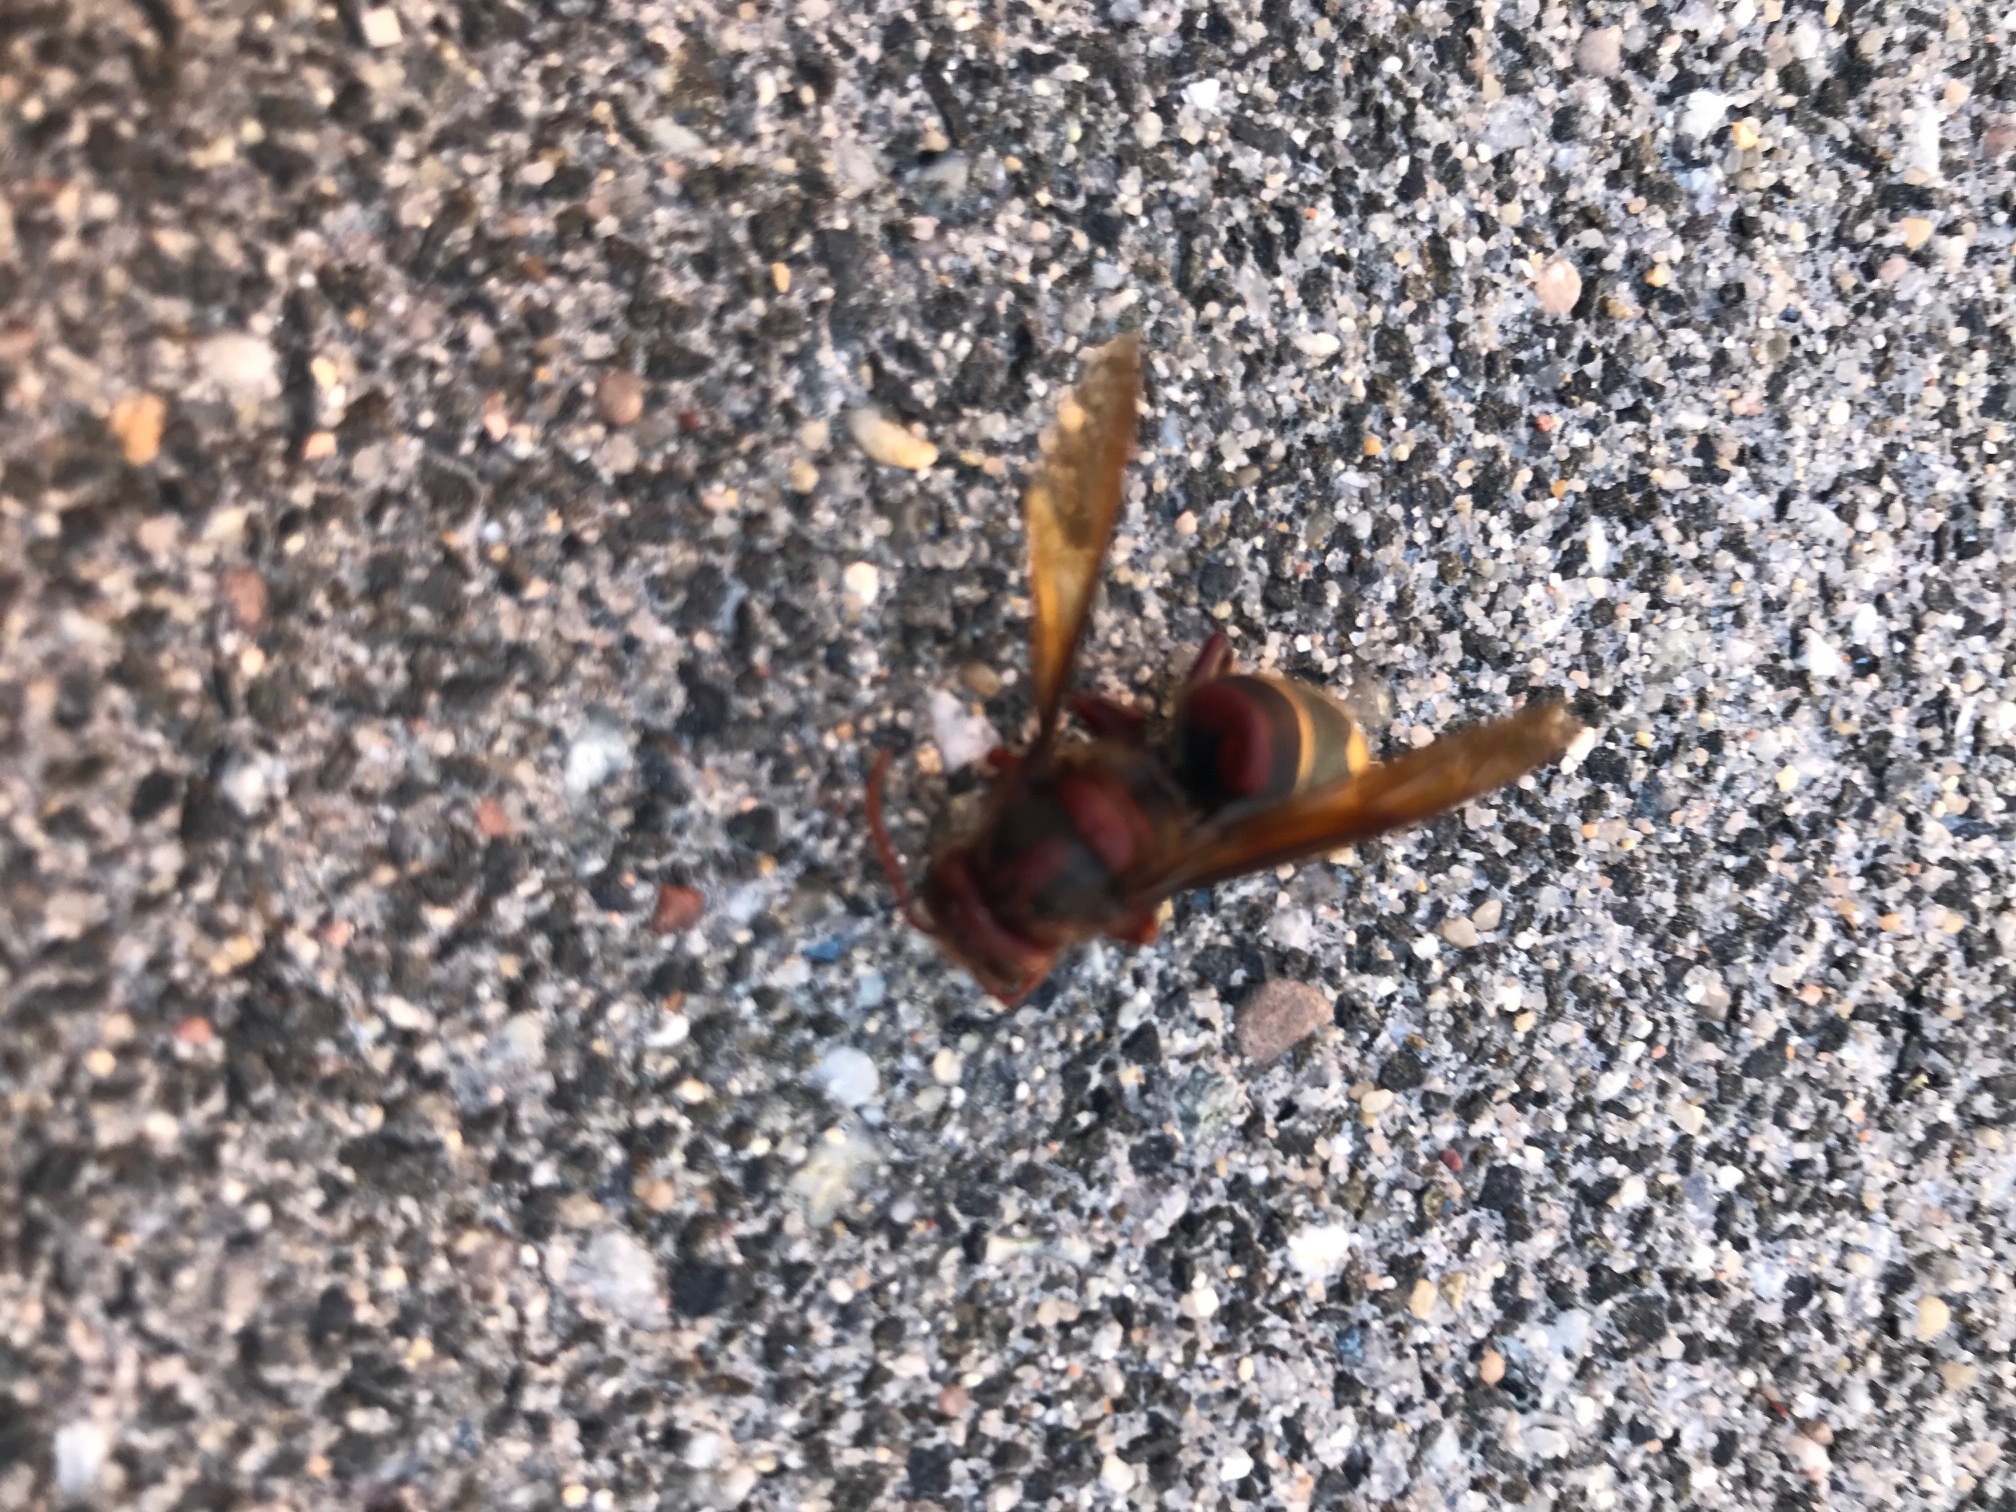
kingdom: Animalia
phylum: Arthropoda
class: Insecta
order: Hymenoptera
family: Vespidae
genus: Vespa
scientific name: Vespa crabro
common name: Hornet
